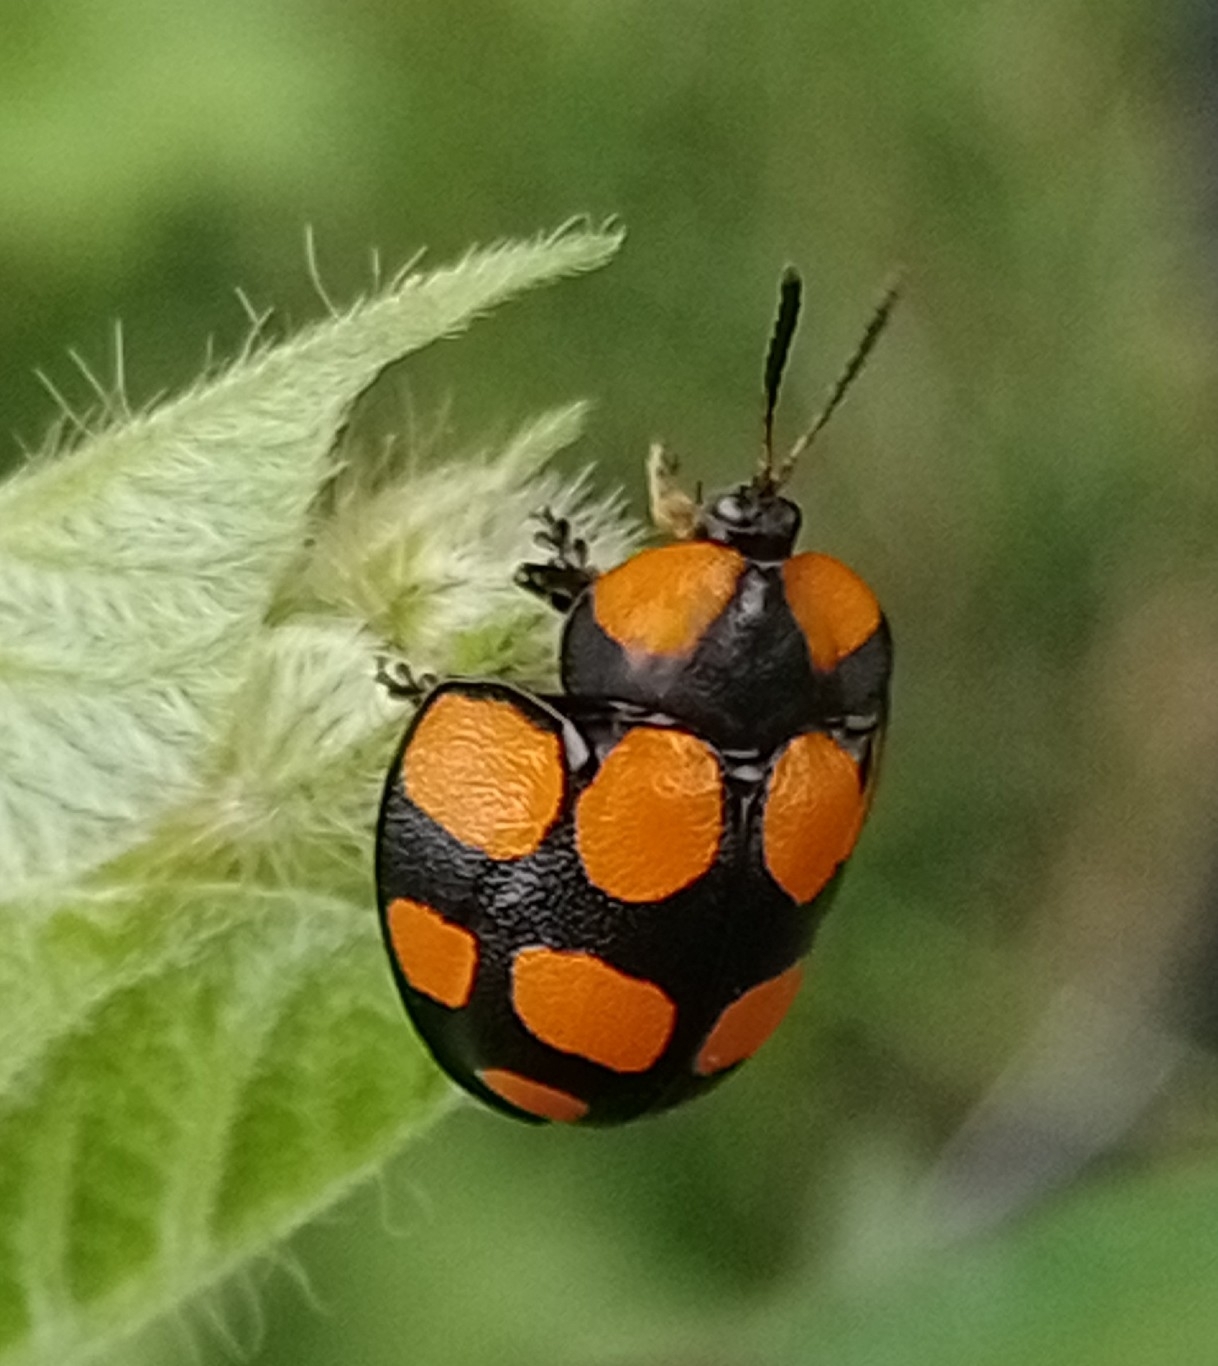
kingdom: Animalia
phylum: Arthropoda
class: Insecta
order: Coleoptera
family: Chrysomelidae
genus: Botanochara
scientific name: Botanochara decempustulata
